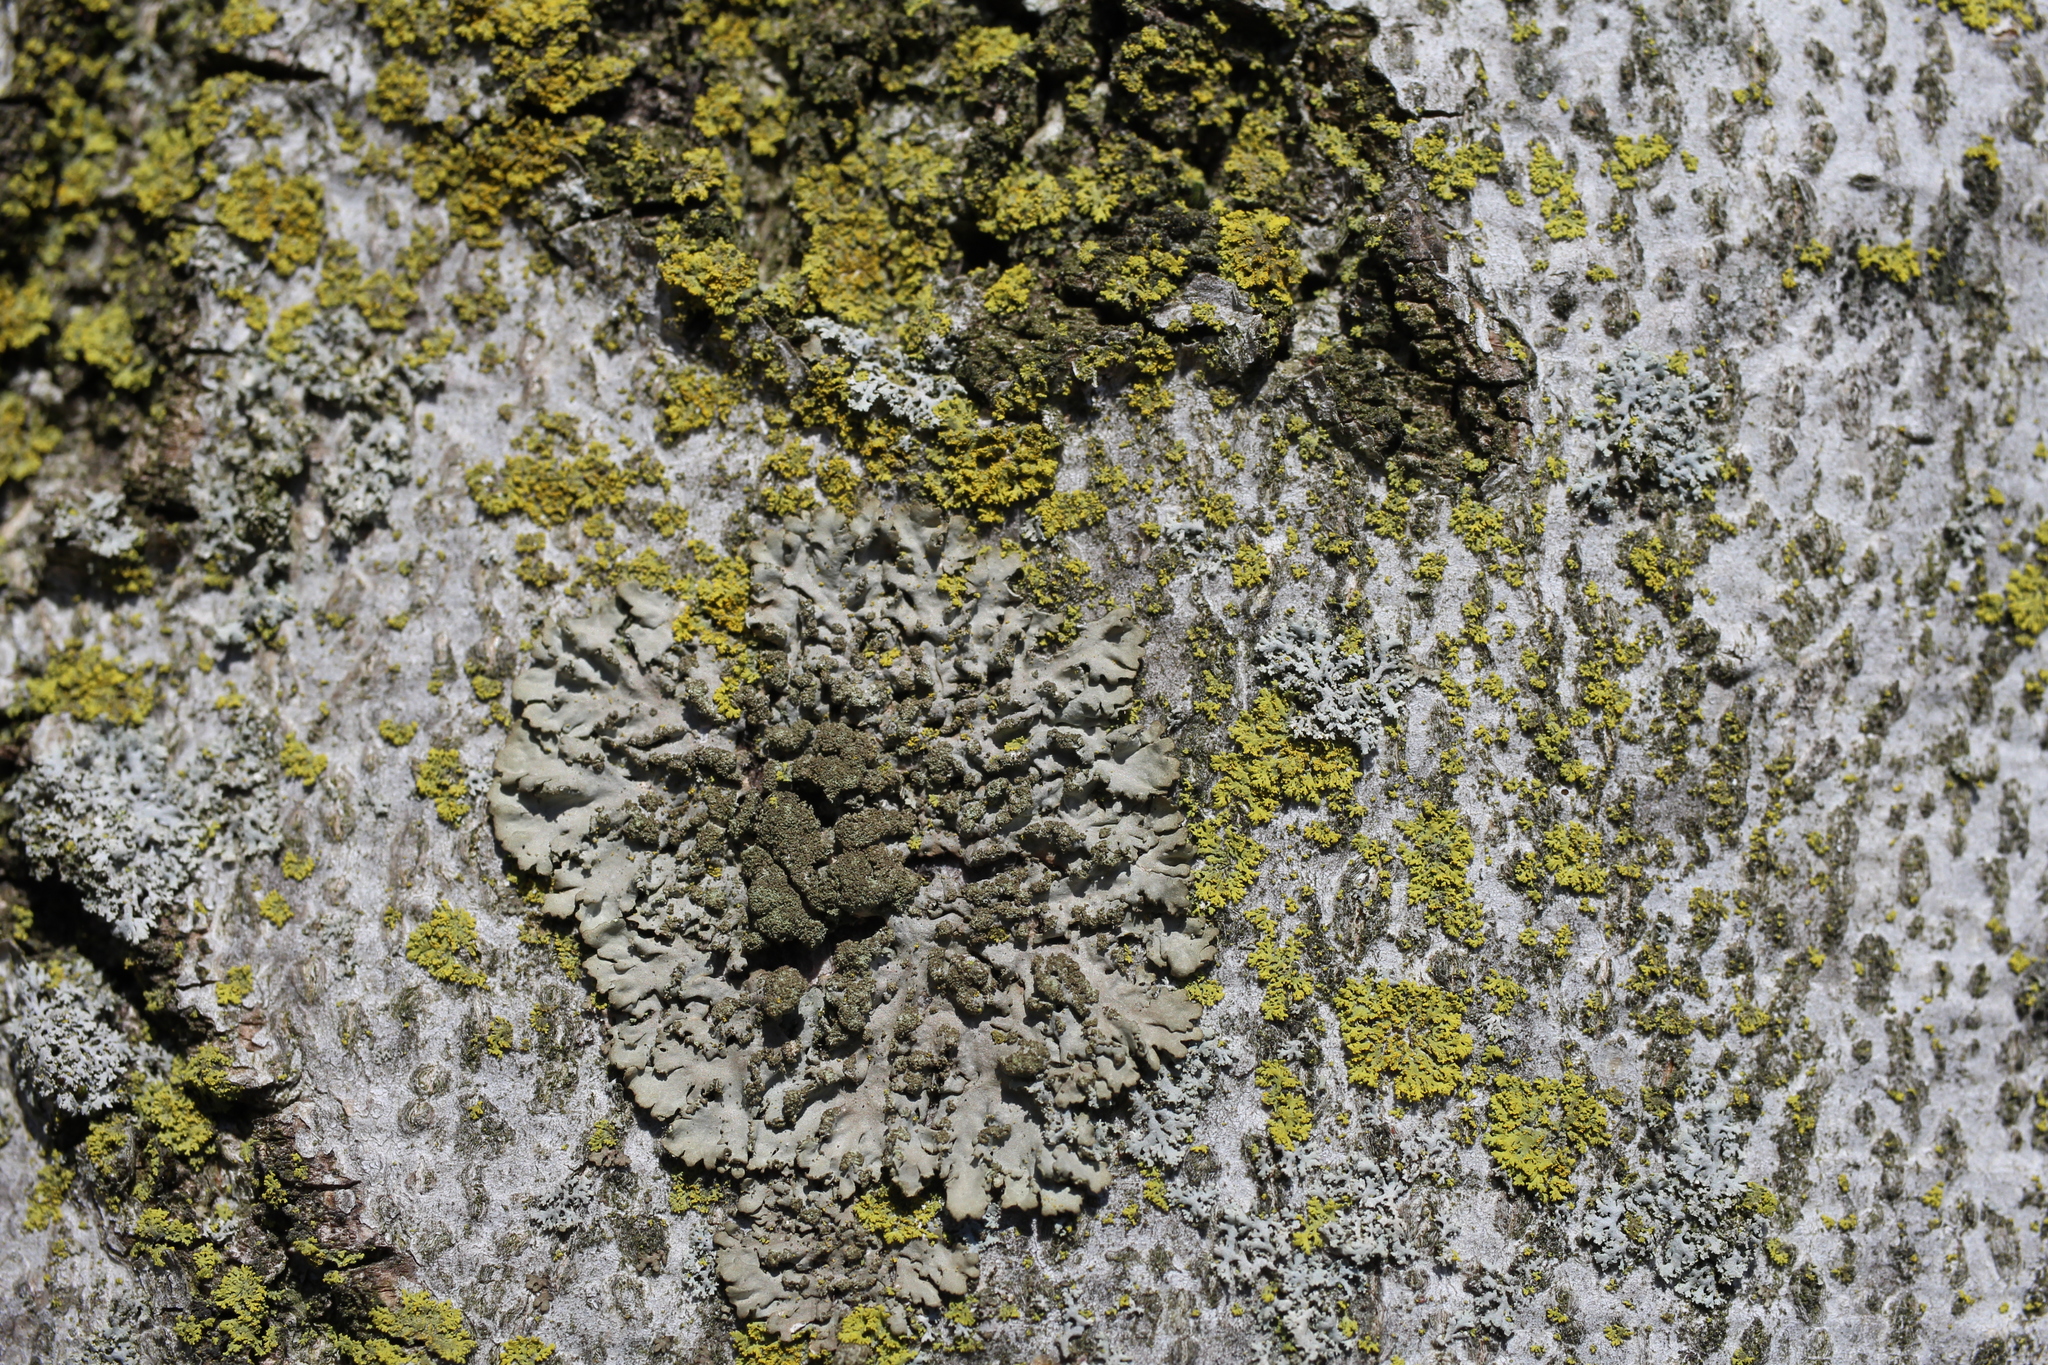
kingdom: Fungi
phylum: Ascomycota
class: Lecanoromycetes
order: Caliciales
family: Physciaceae
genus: Phaeophyscia
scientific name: Phaeophyscia rubropulchra
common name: Orange-cored shadow lichen
